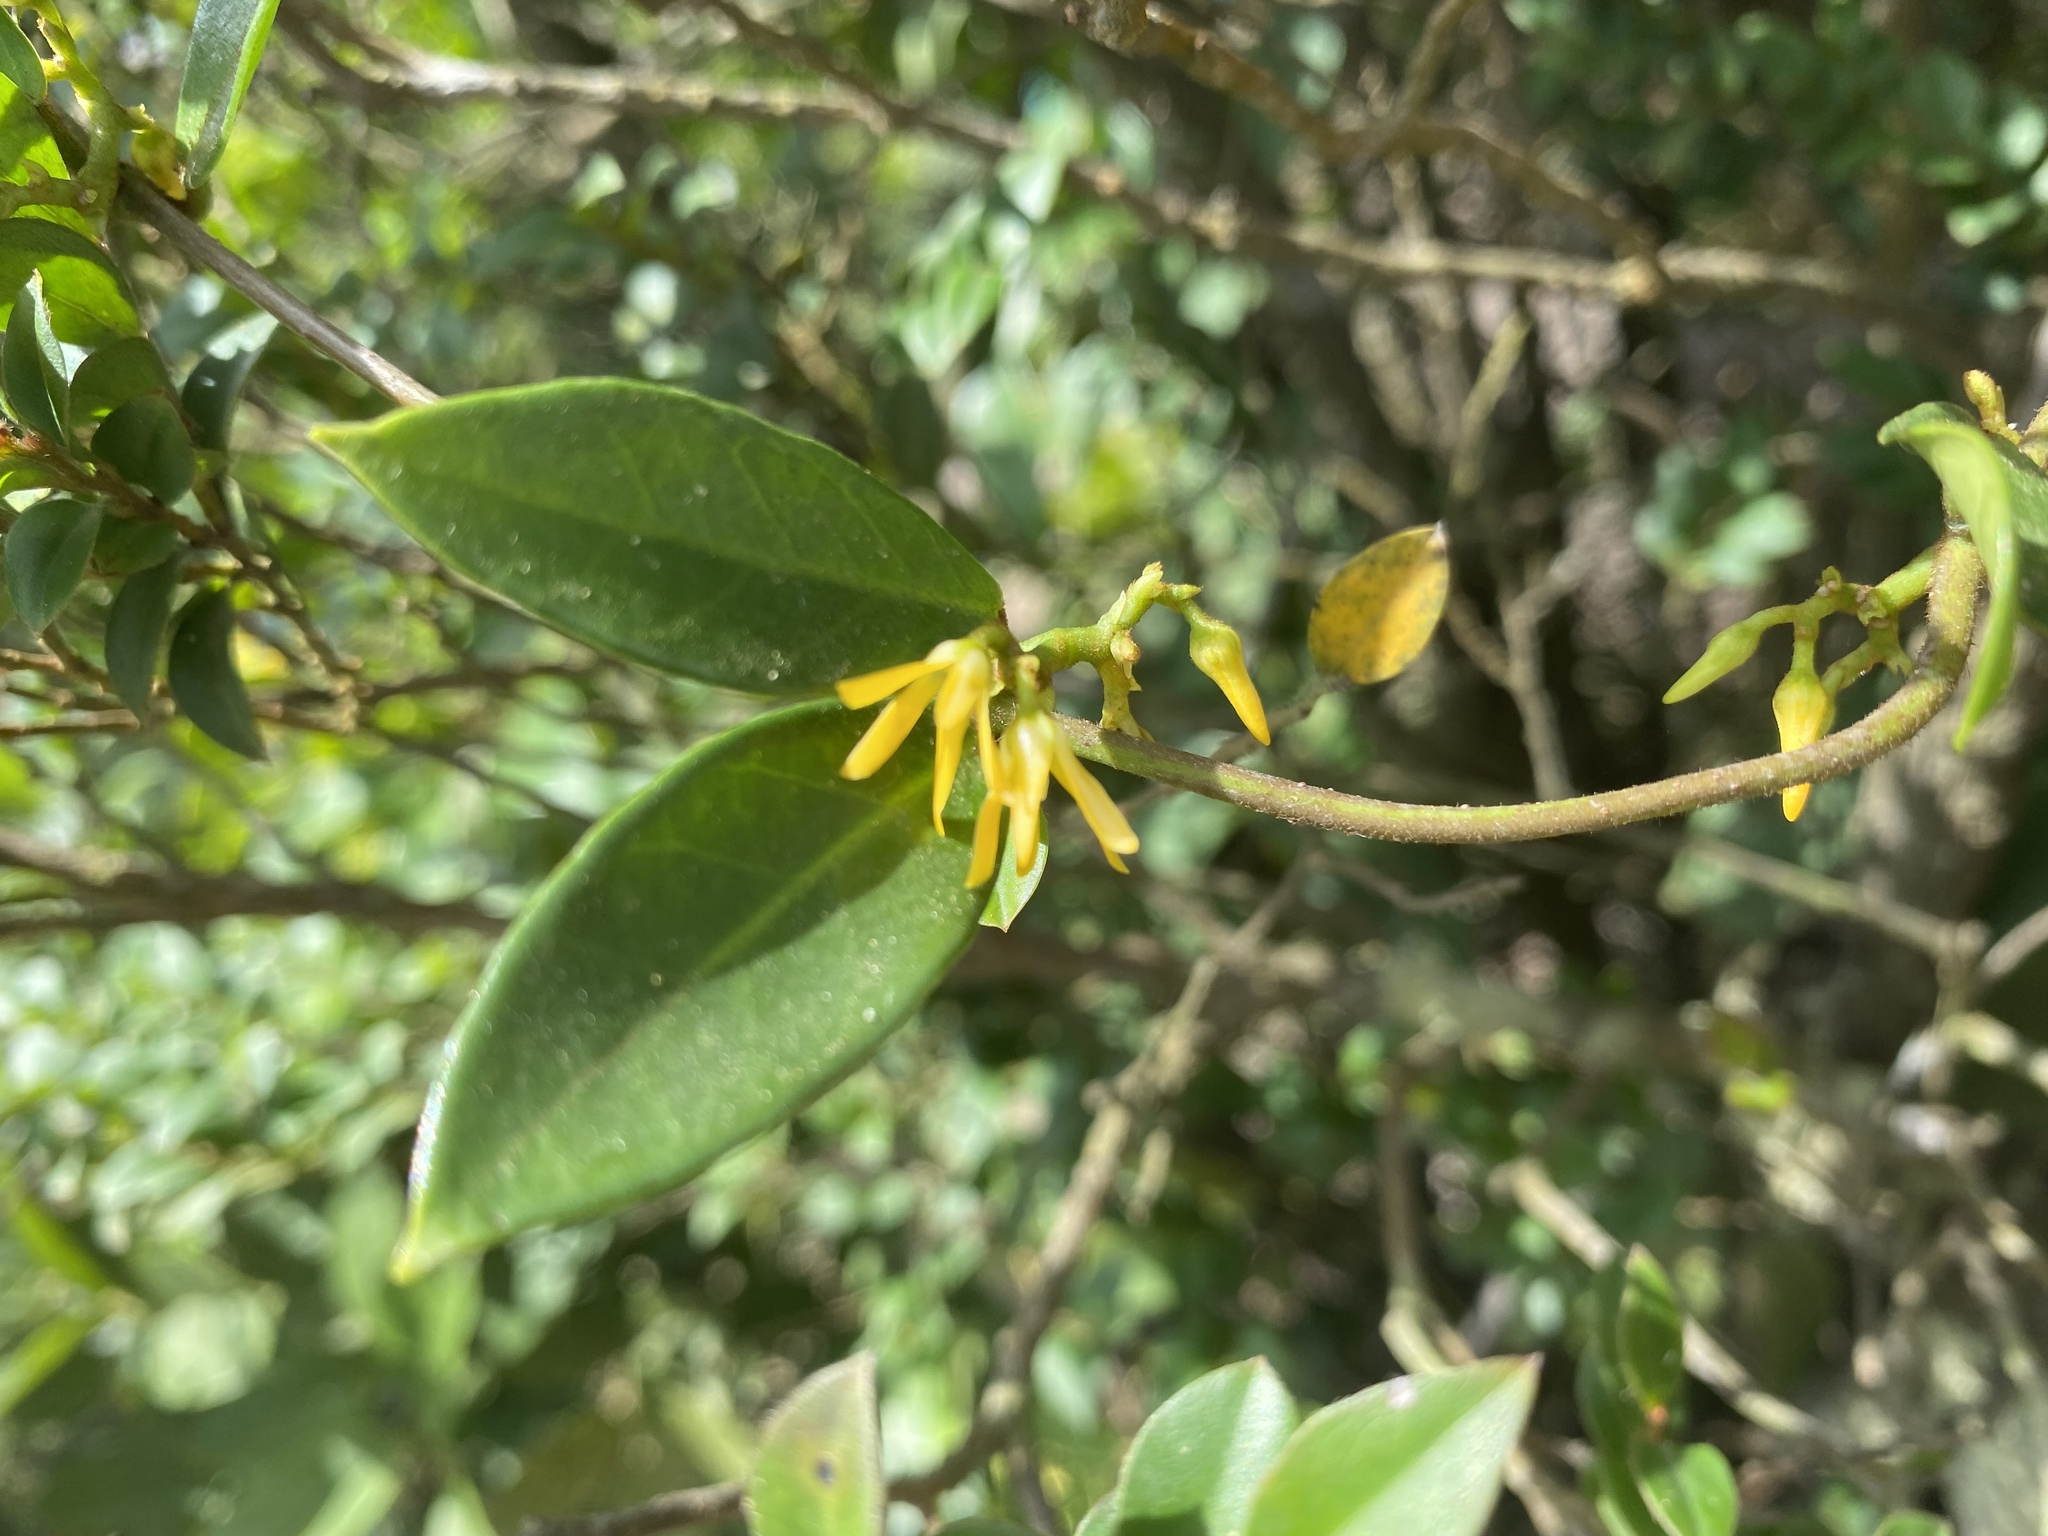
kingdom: Plantae
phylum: Tracheophyta
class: Magnoliopsida
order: Gentianales
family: Apocynaceae
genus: Toxocarpus
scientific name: Toxocarpus wightianus
